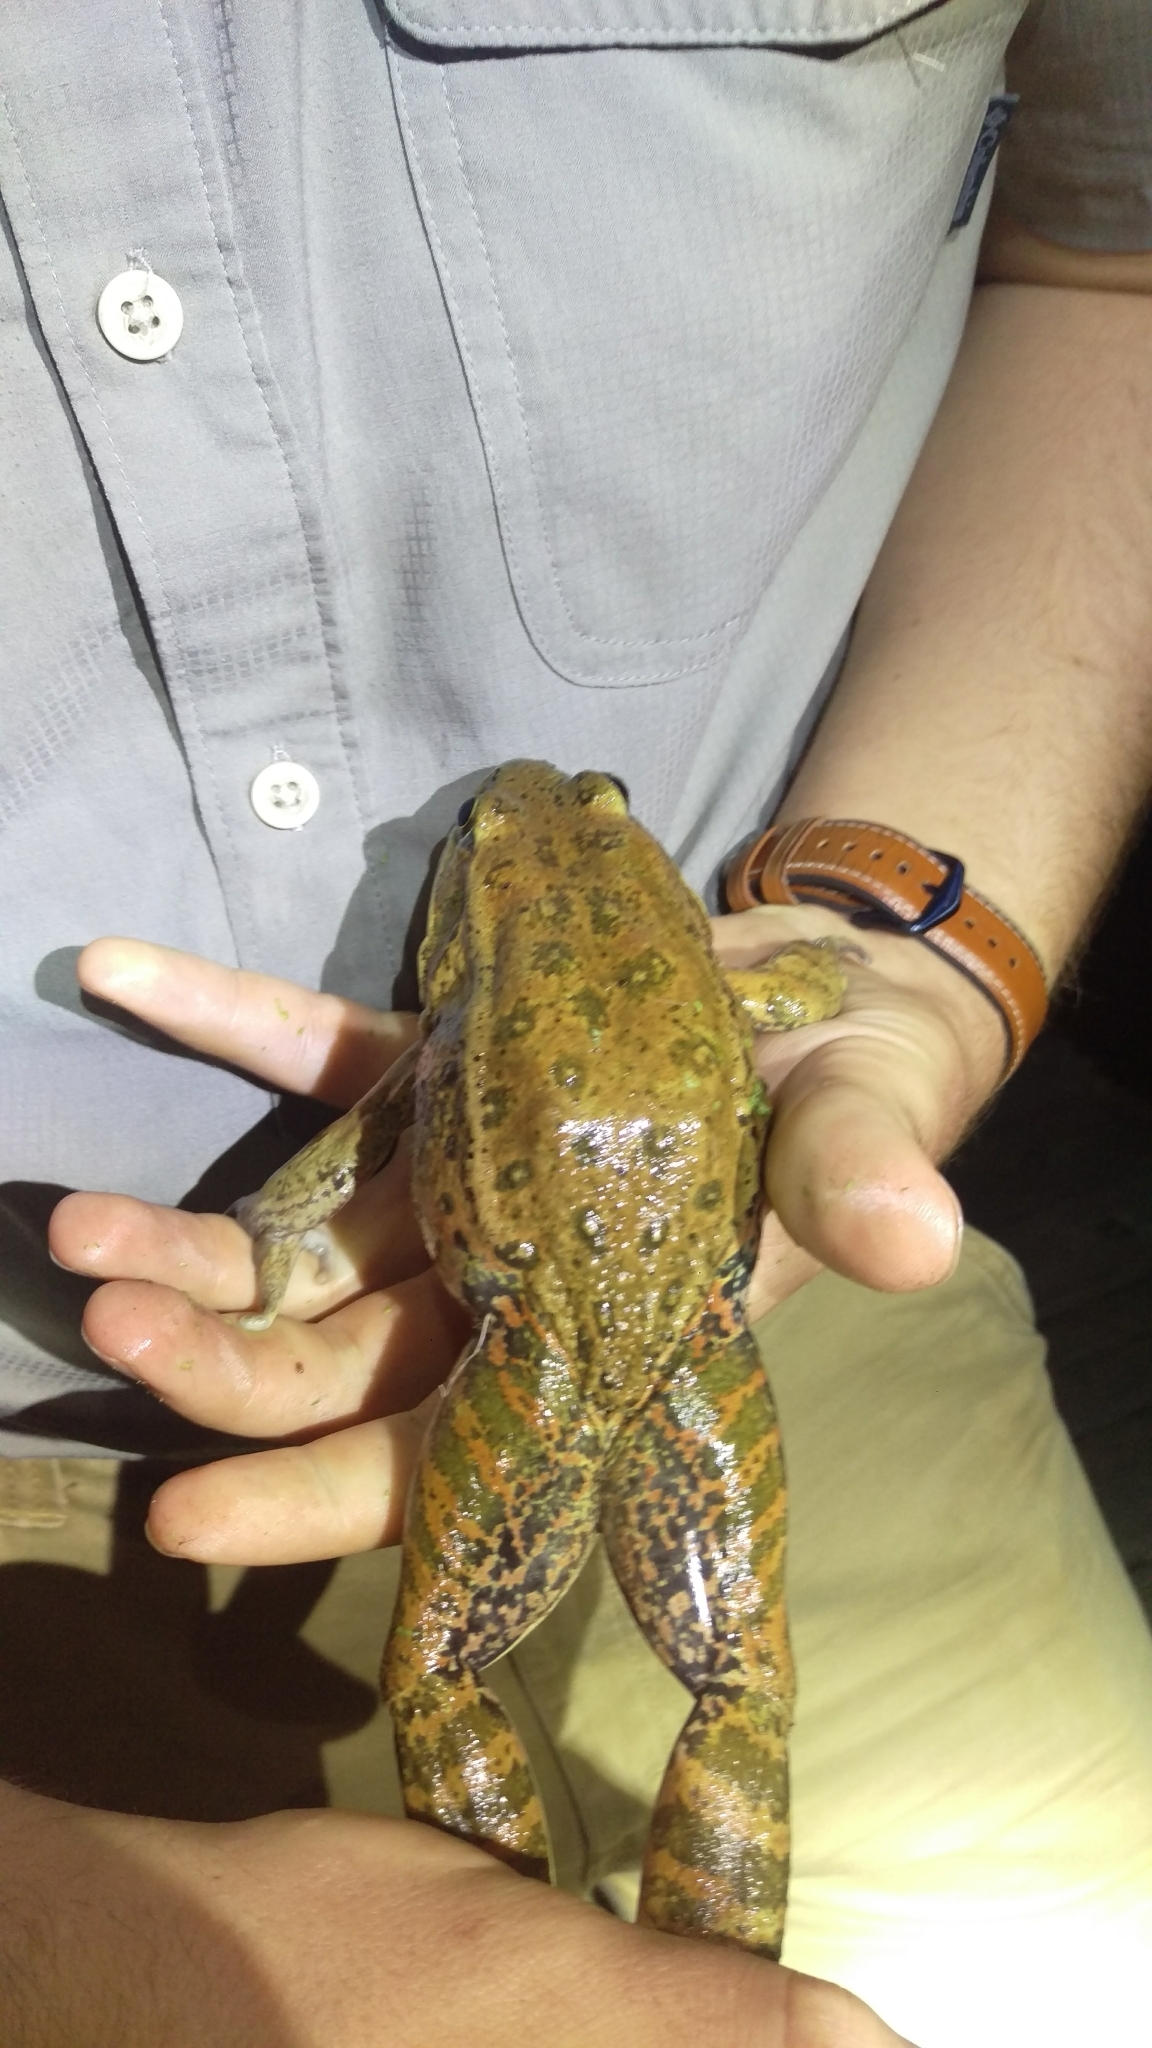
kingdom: Animalia
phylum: Chordata
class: Amphibia
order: Anura
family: Ranidae
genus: Rana
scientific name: Rana draytonii
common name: California red-legged frog
